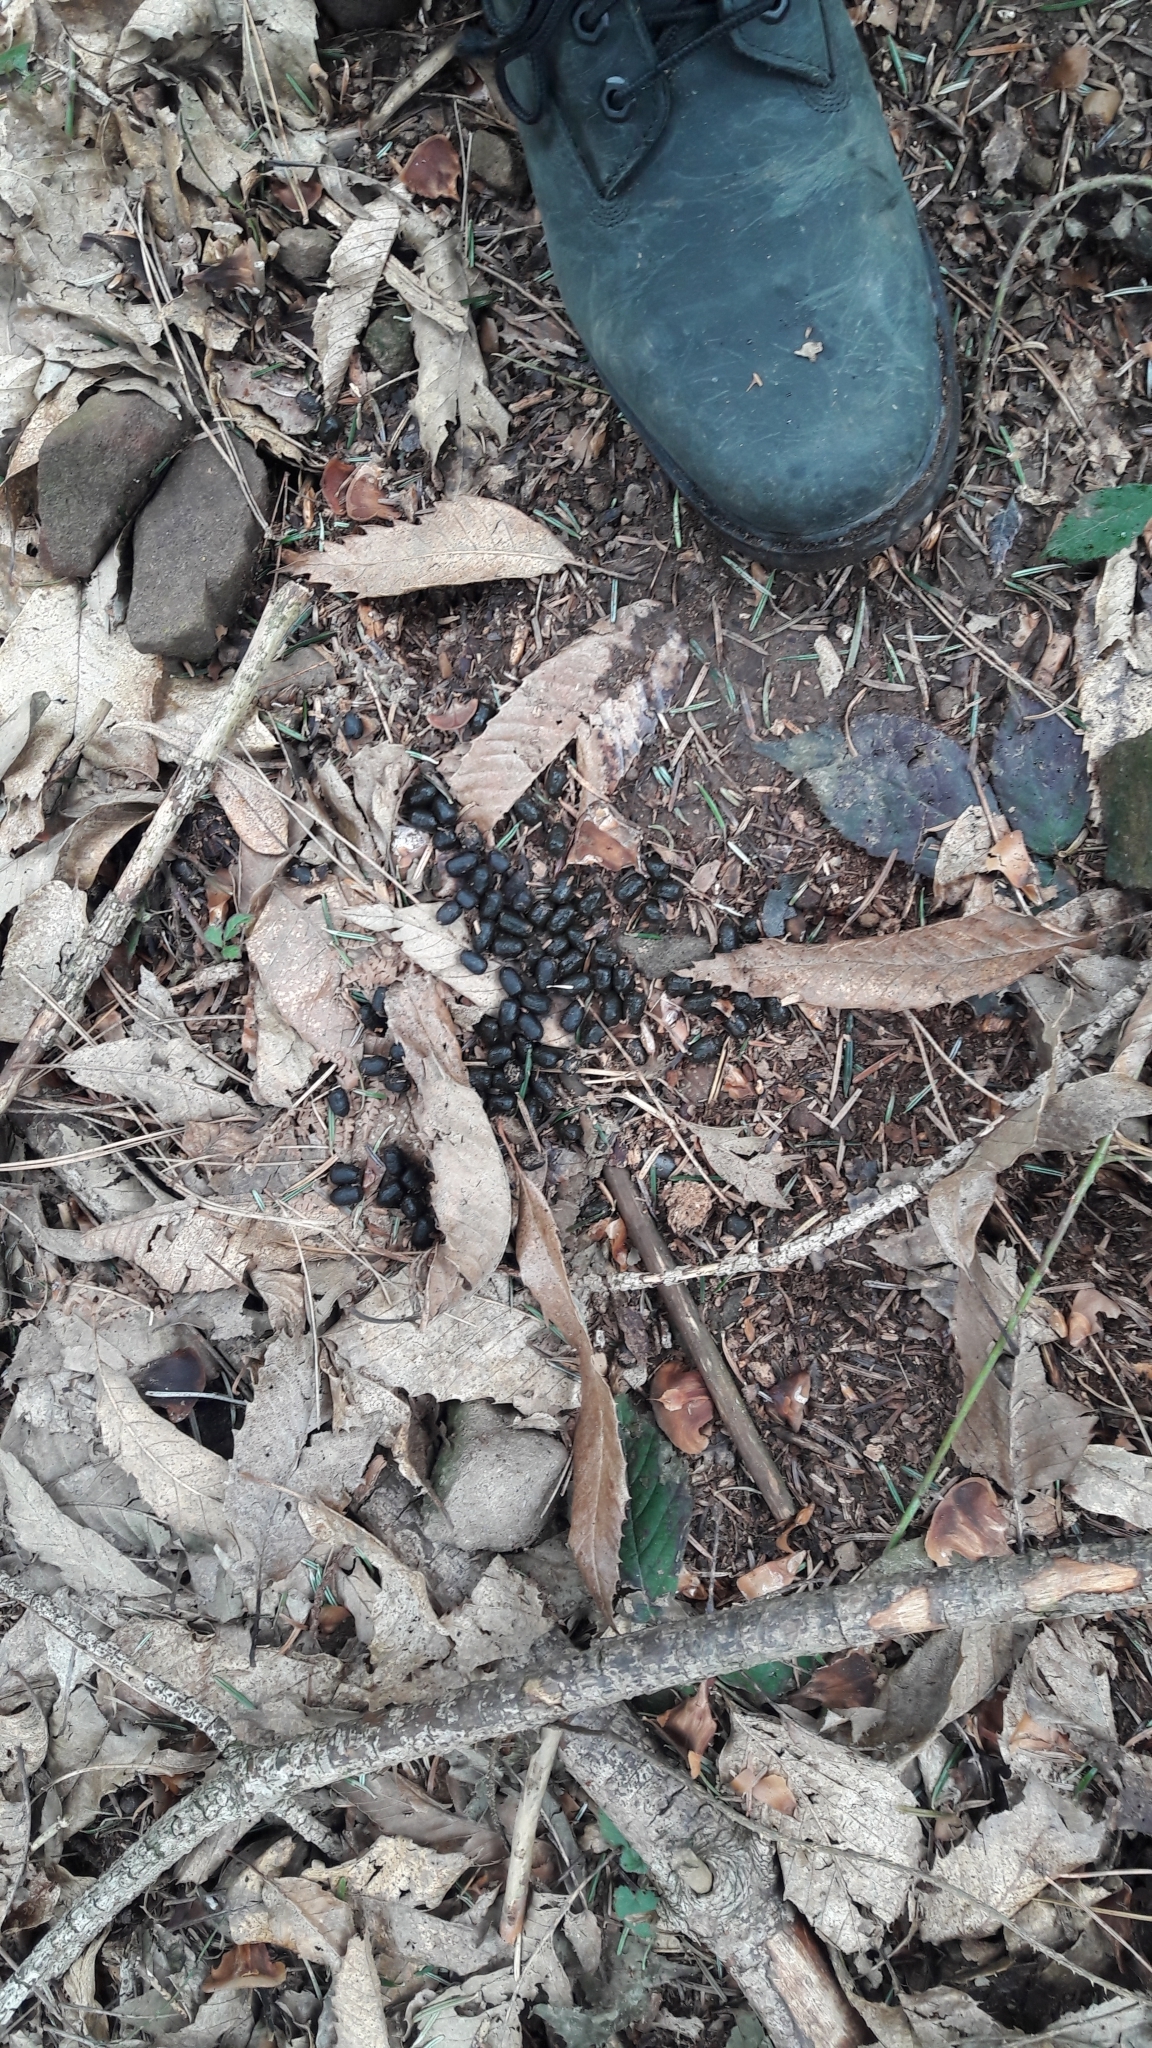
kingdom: Animalia
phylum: Chordata
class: Mammalia
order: Artiodactyla
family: Cervidae
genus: Capreolus
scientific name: Capreolus capreolus
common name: Western roe deer
